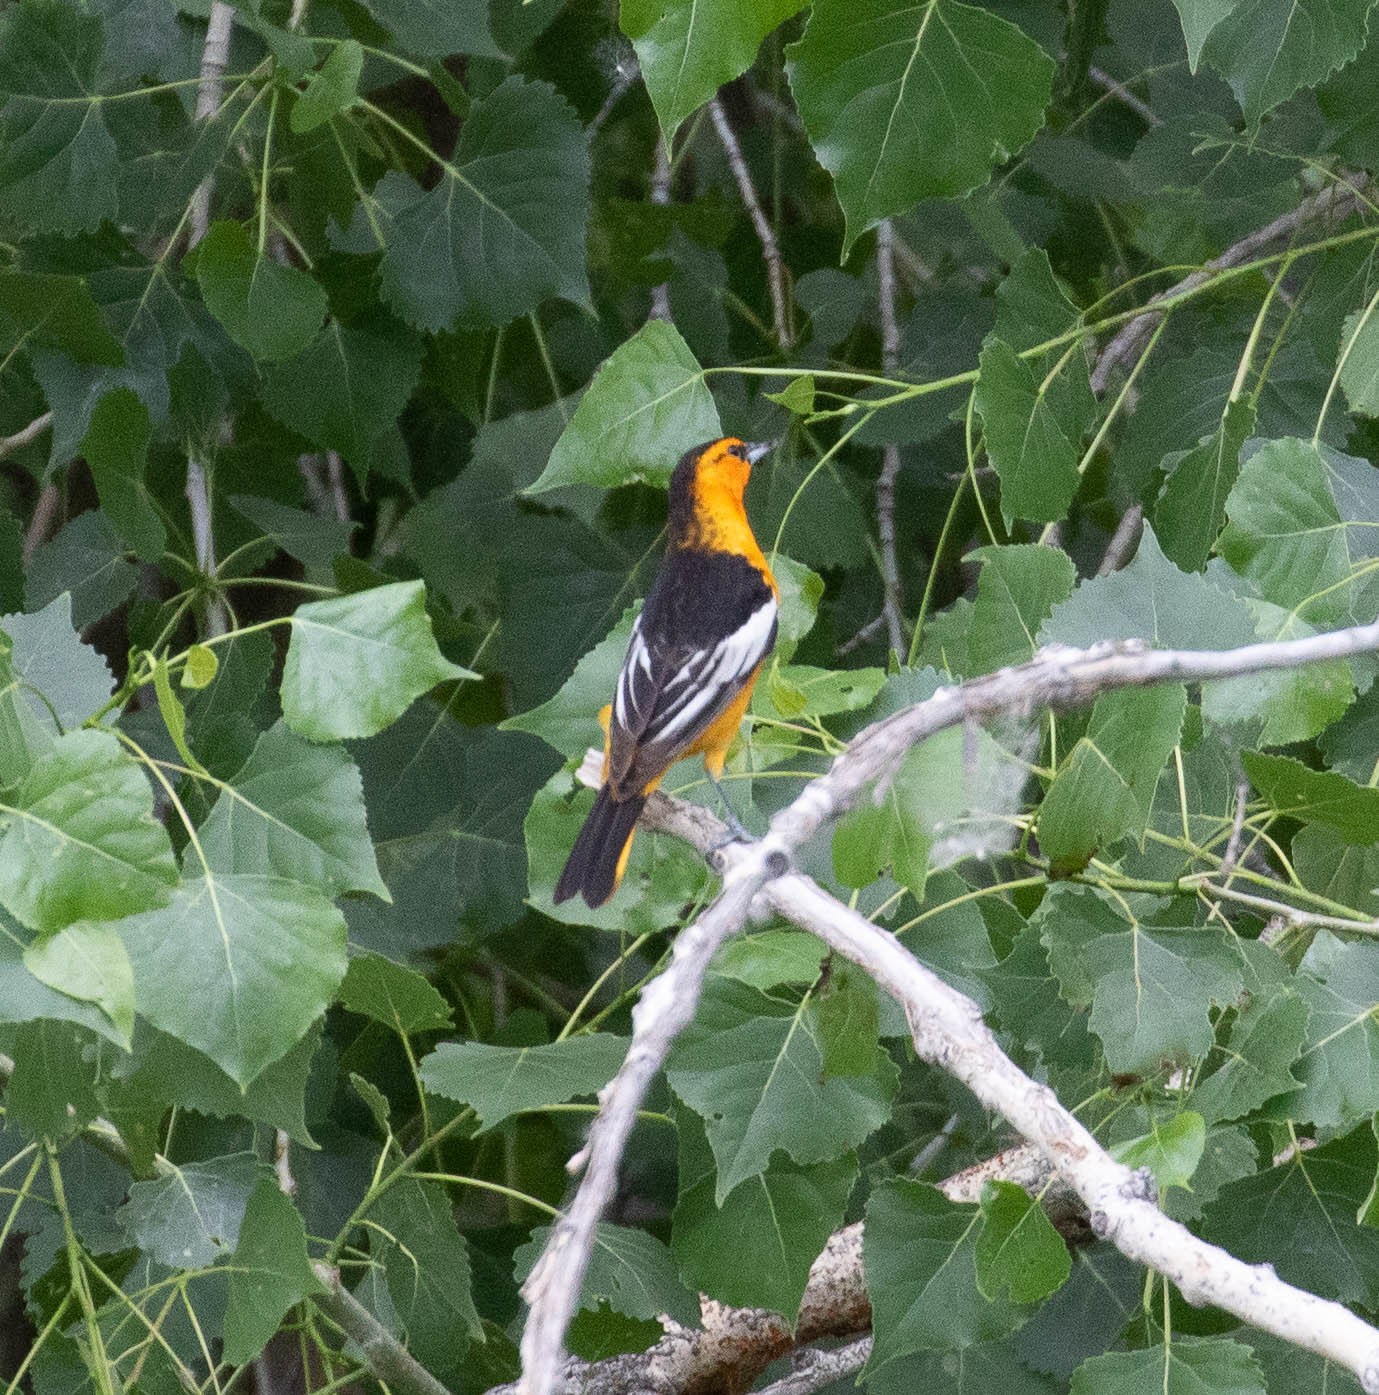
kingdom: Animalia
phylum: Chordata
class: Aves
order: Passeriformes
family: Icteridae
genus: Icterus
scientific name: Icterus bullockii
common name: Bullock's oriole
